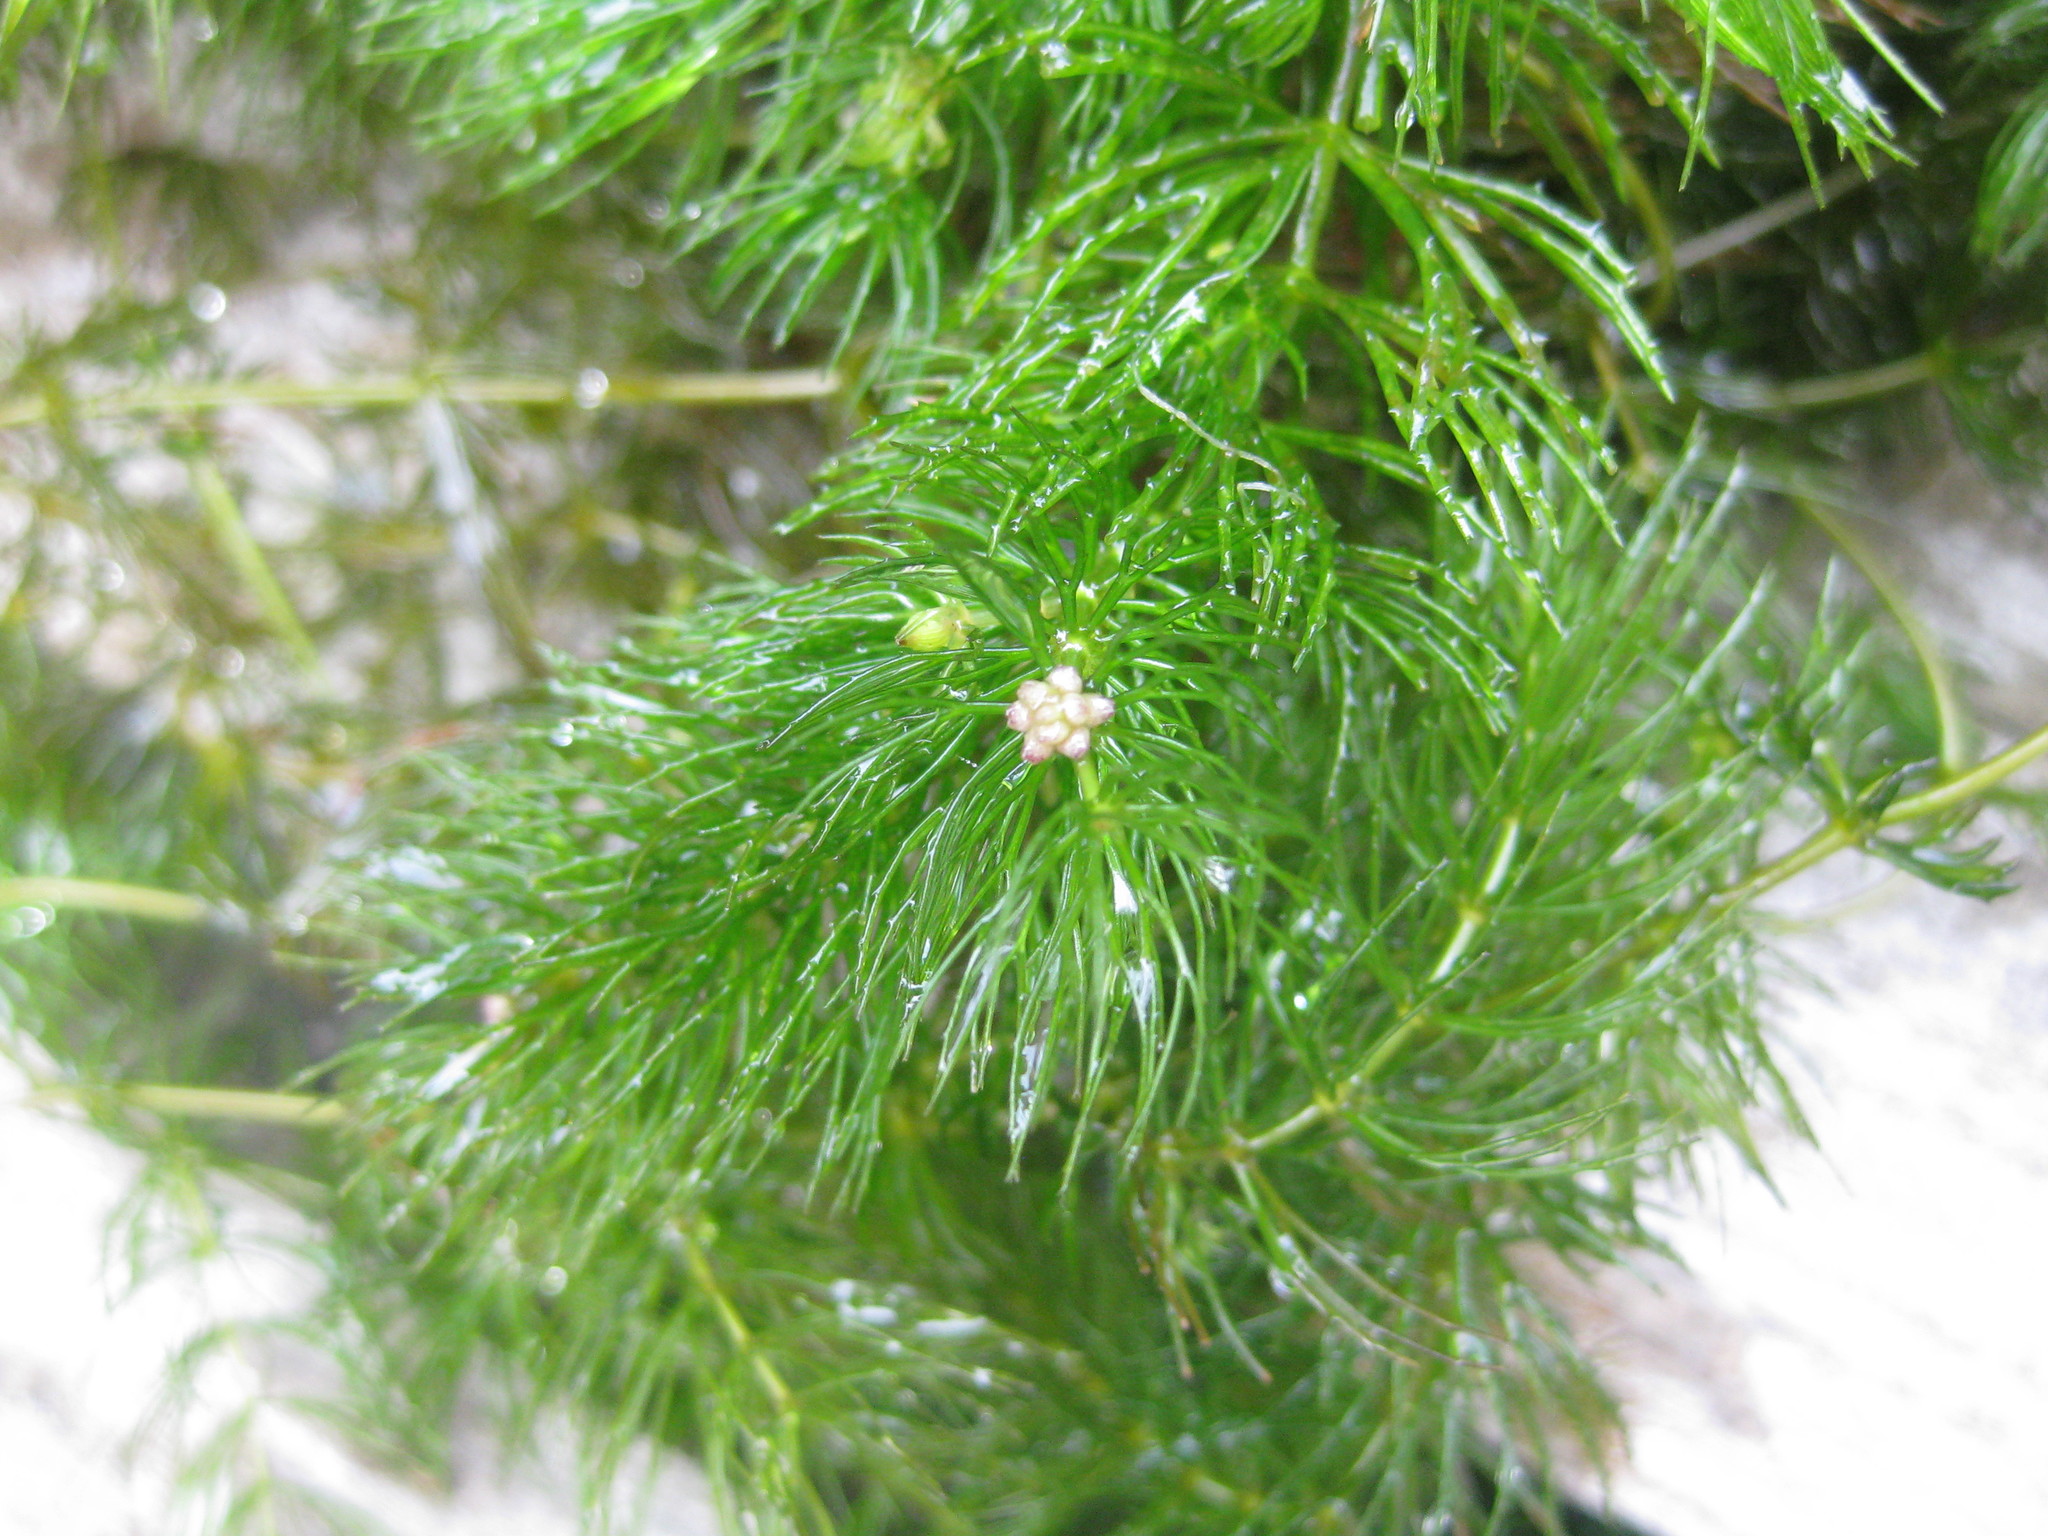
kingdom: Plantae
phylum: Tracheophyta
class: Magnoliopsida
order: Ceratophyllales
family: Ceratophyllaceae
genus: Ceratophyllum
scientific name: Ceratophyllum demersum
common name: Rigid hornwort
